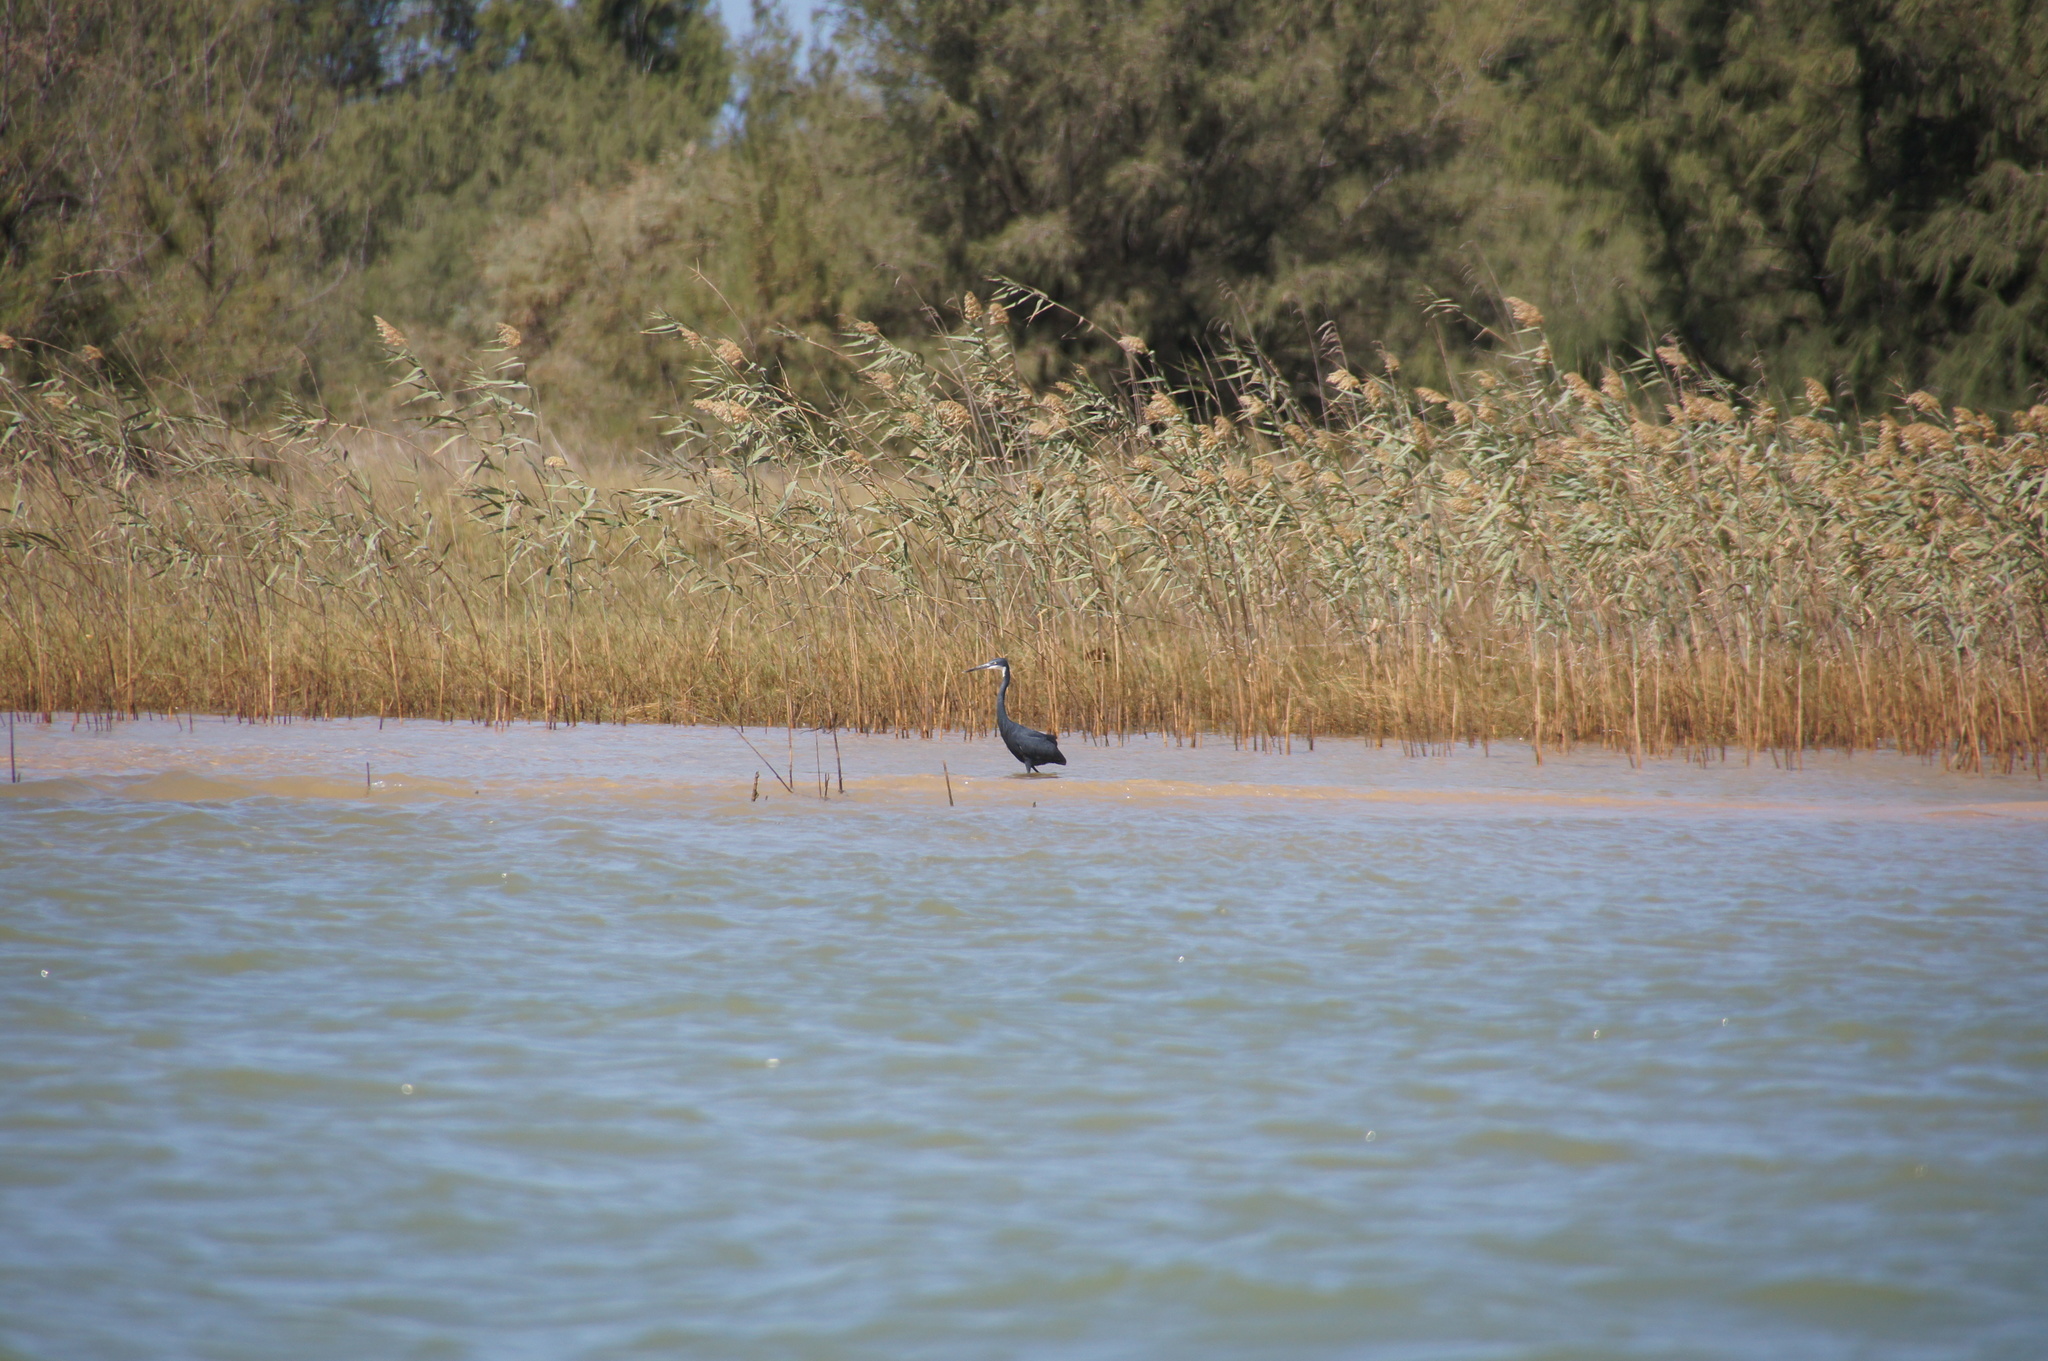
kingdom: Animalia
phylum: Chordata
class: Aves
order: Pelecaniformes
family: Ardeidae
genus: Egretta
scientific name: Egretta gularis
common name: Western reef-heron
